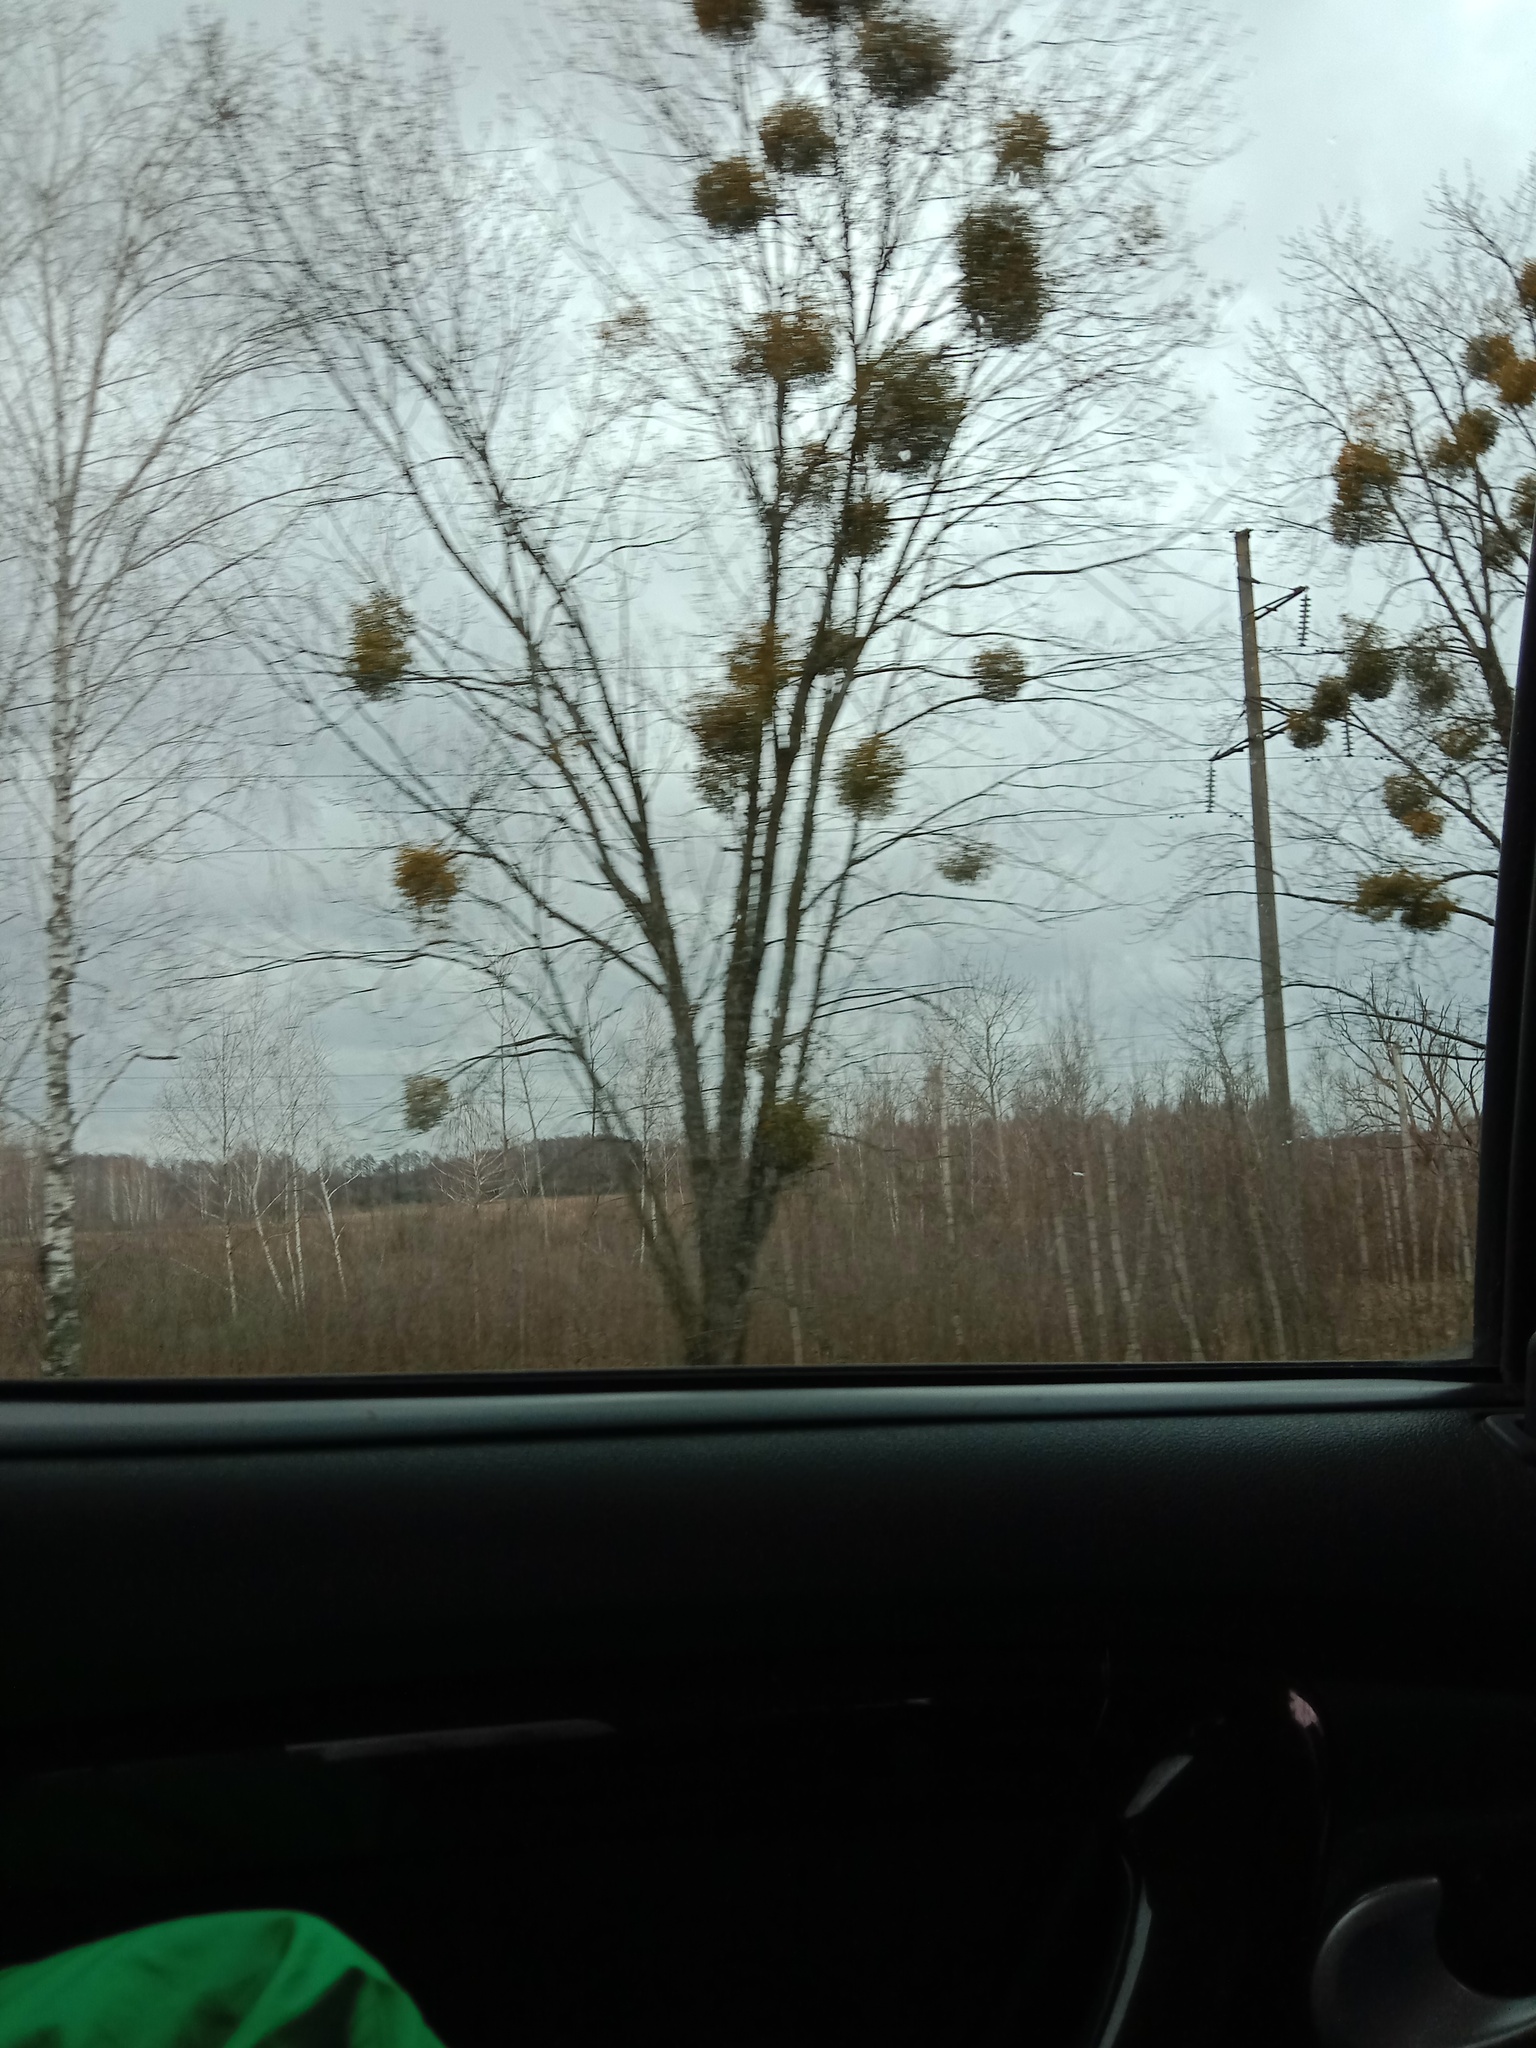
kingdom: Plantae
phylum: Tracheophyta
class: Magnoliopsida
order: Santalales
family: Viscaceae
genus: Viscum
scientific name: Viscum album
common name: Mistletoe
